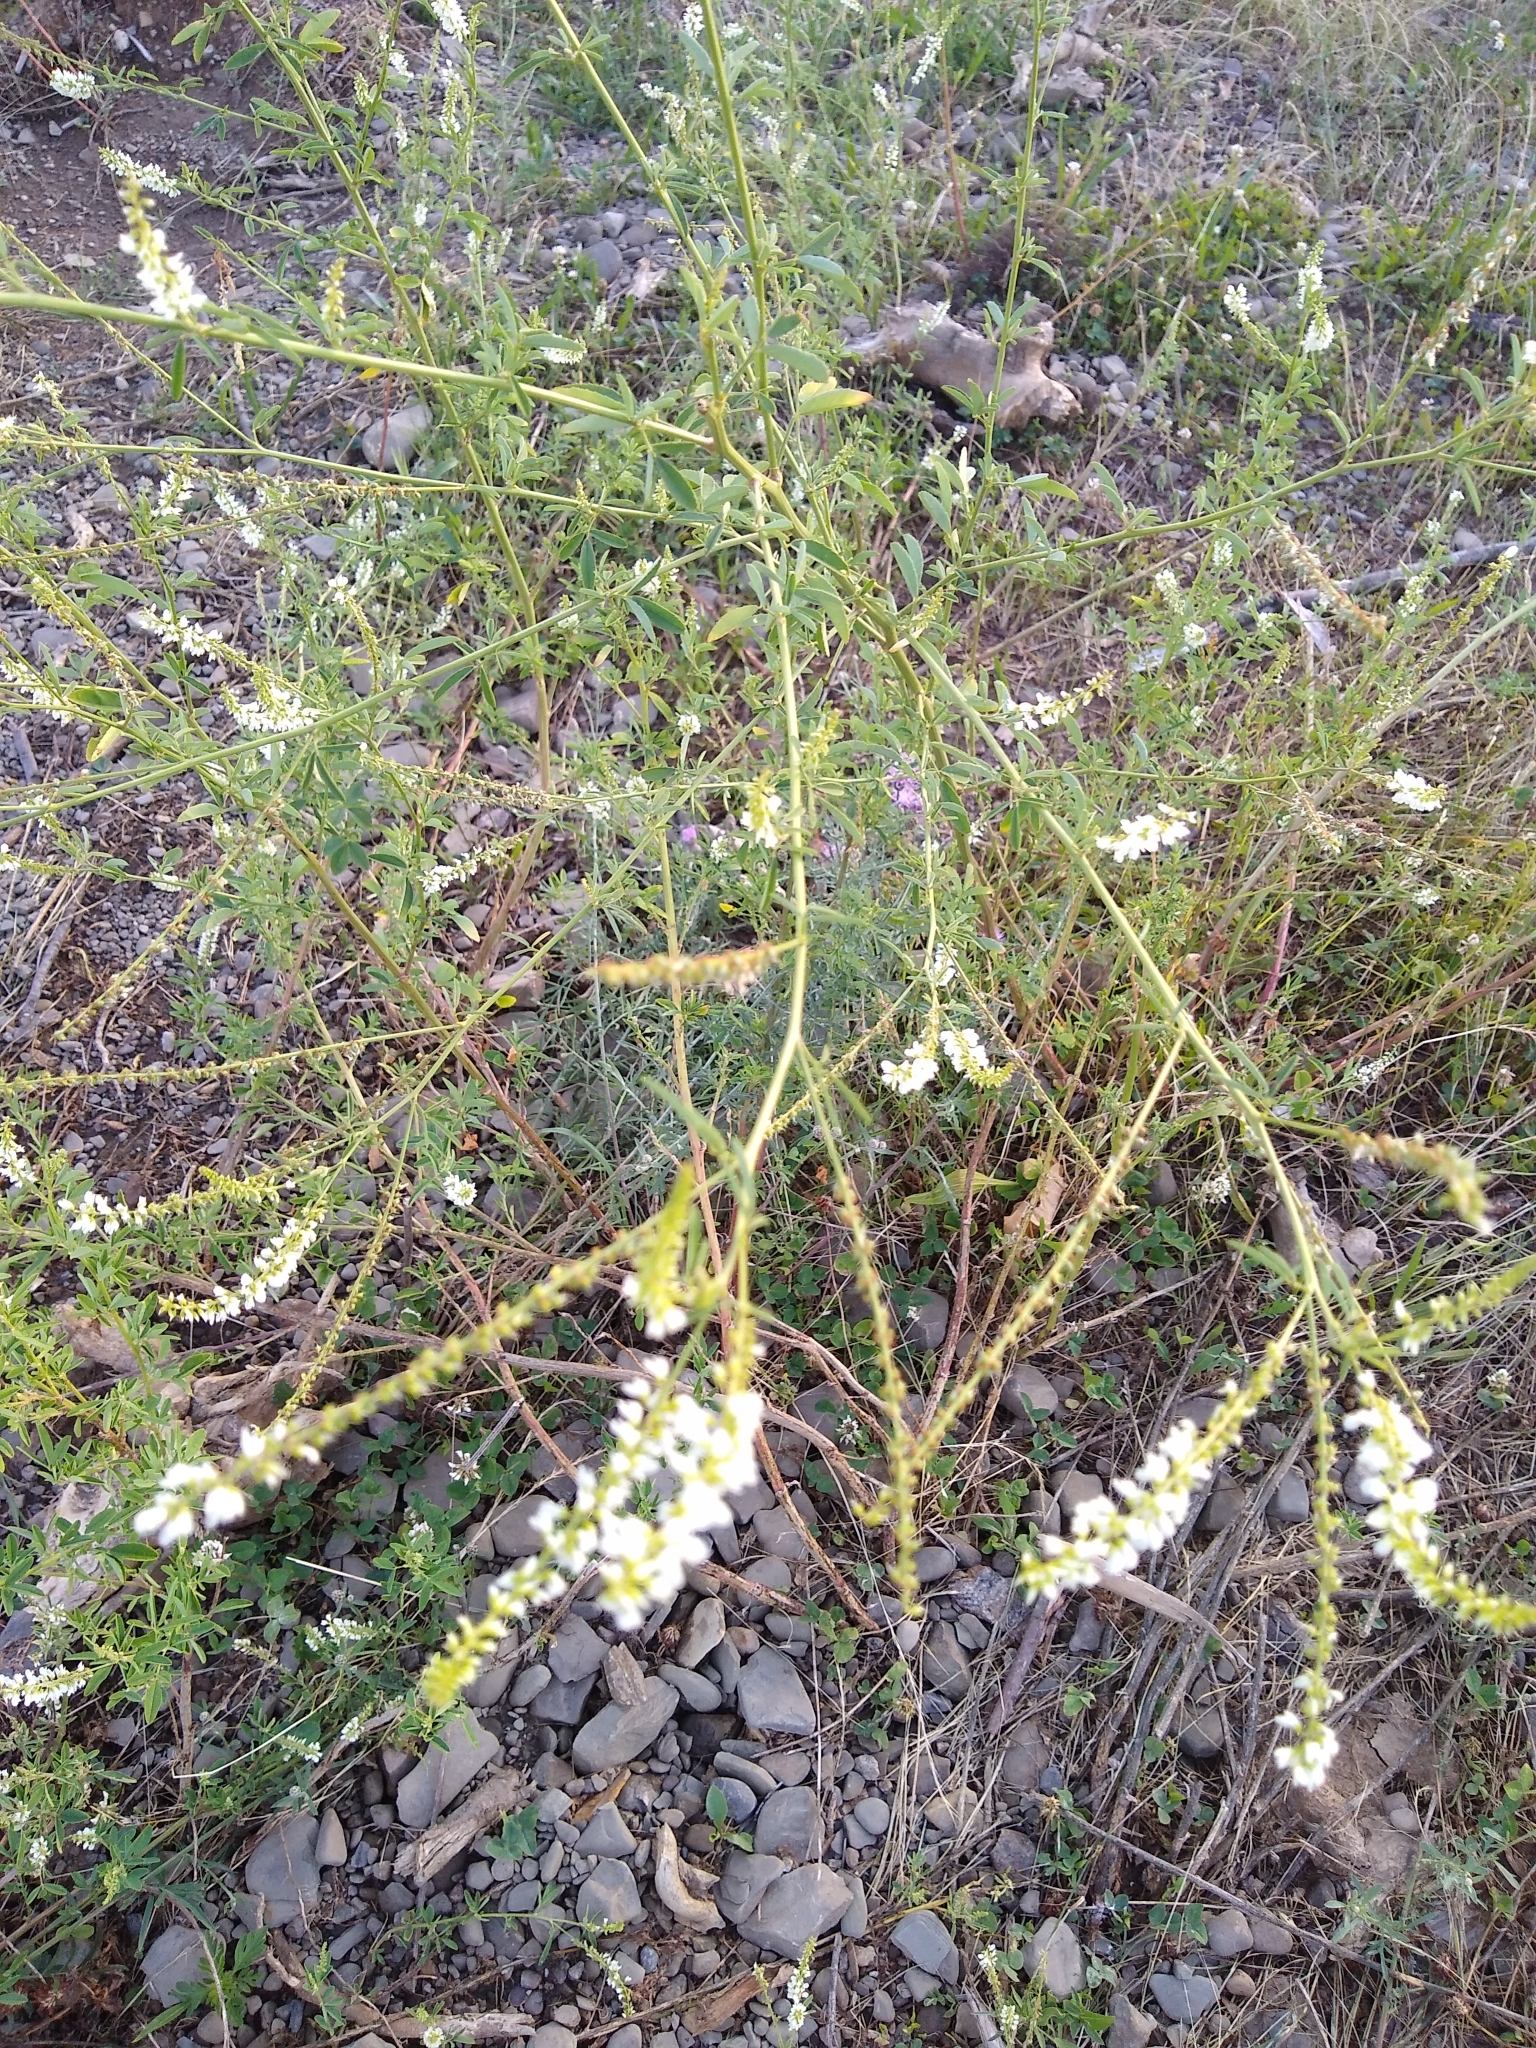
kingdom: Plantae
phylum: Tracheophyta
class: Magnoliopsida
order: Fabales
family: Fabaceae
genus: Melilotus
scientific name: Melilotus albus
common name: White melilot
